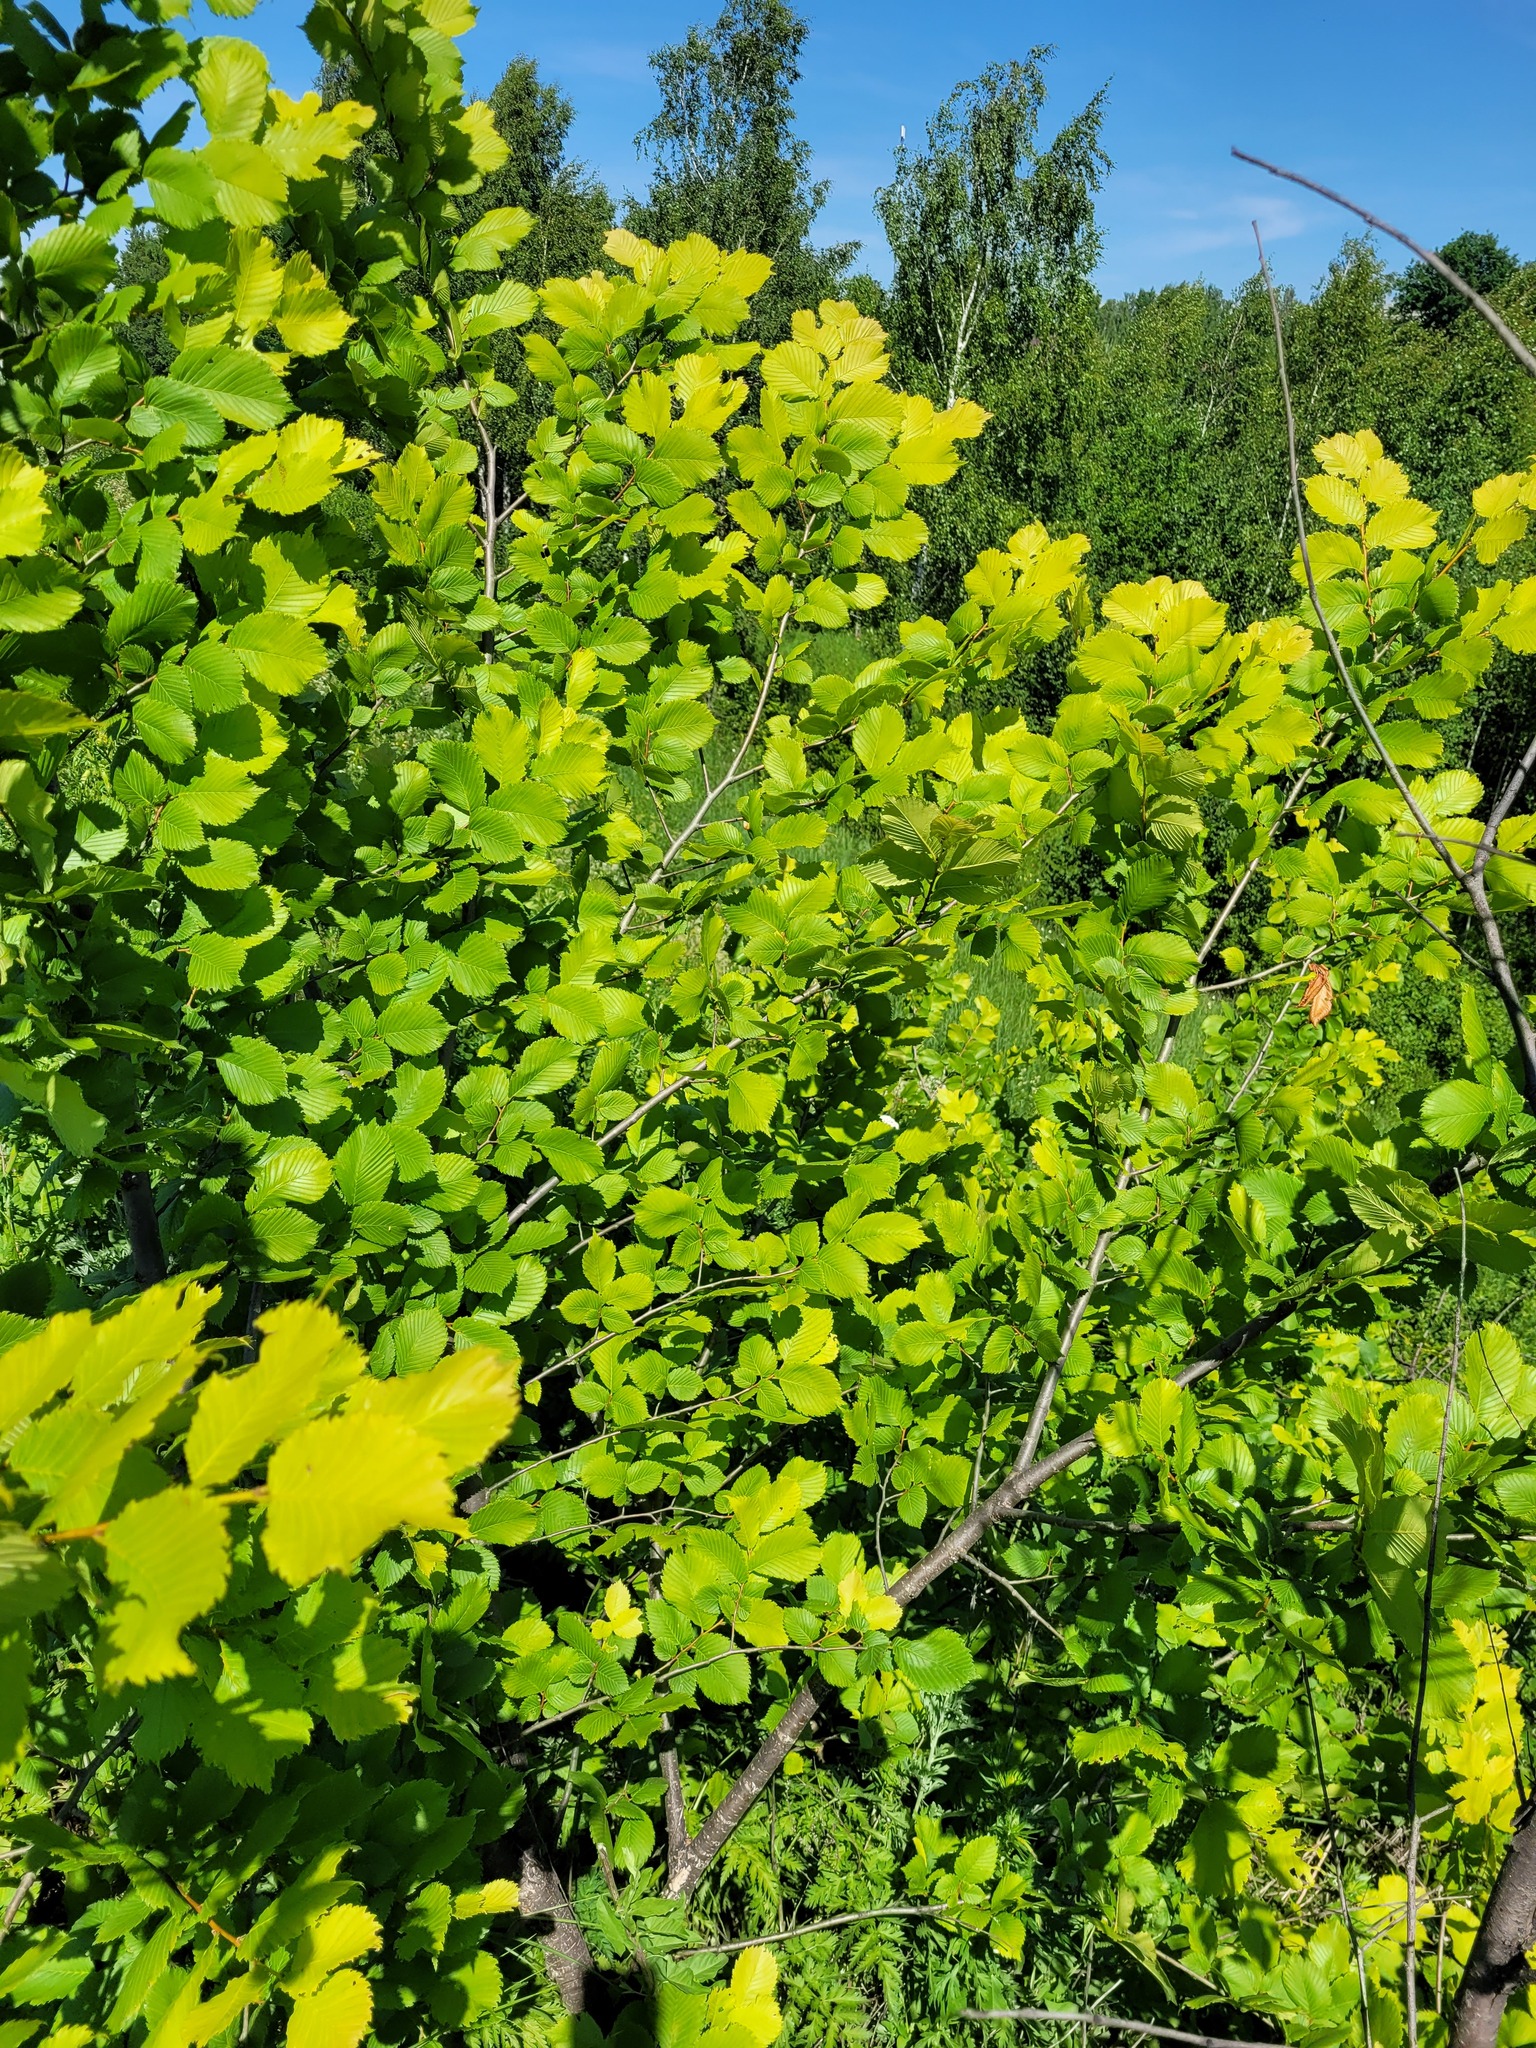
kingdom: Plantae
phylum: Tracheophyta
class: Magnoliopsida
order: Rosales
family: Ulmaceae
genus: Ulmus
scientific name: Ulmus laevis
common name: European white-elm
